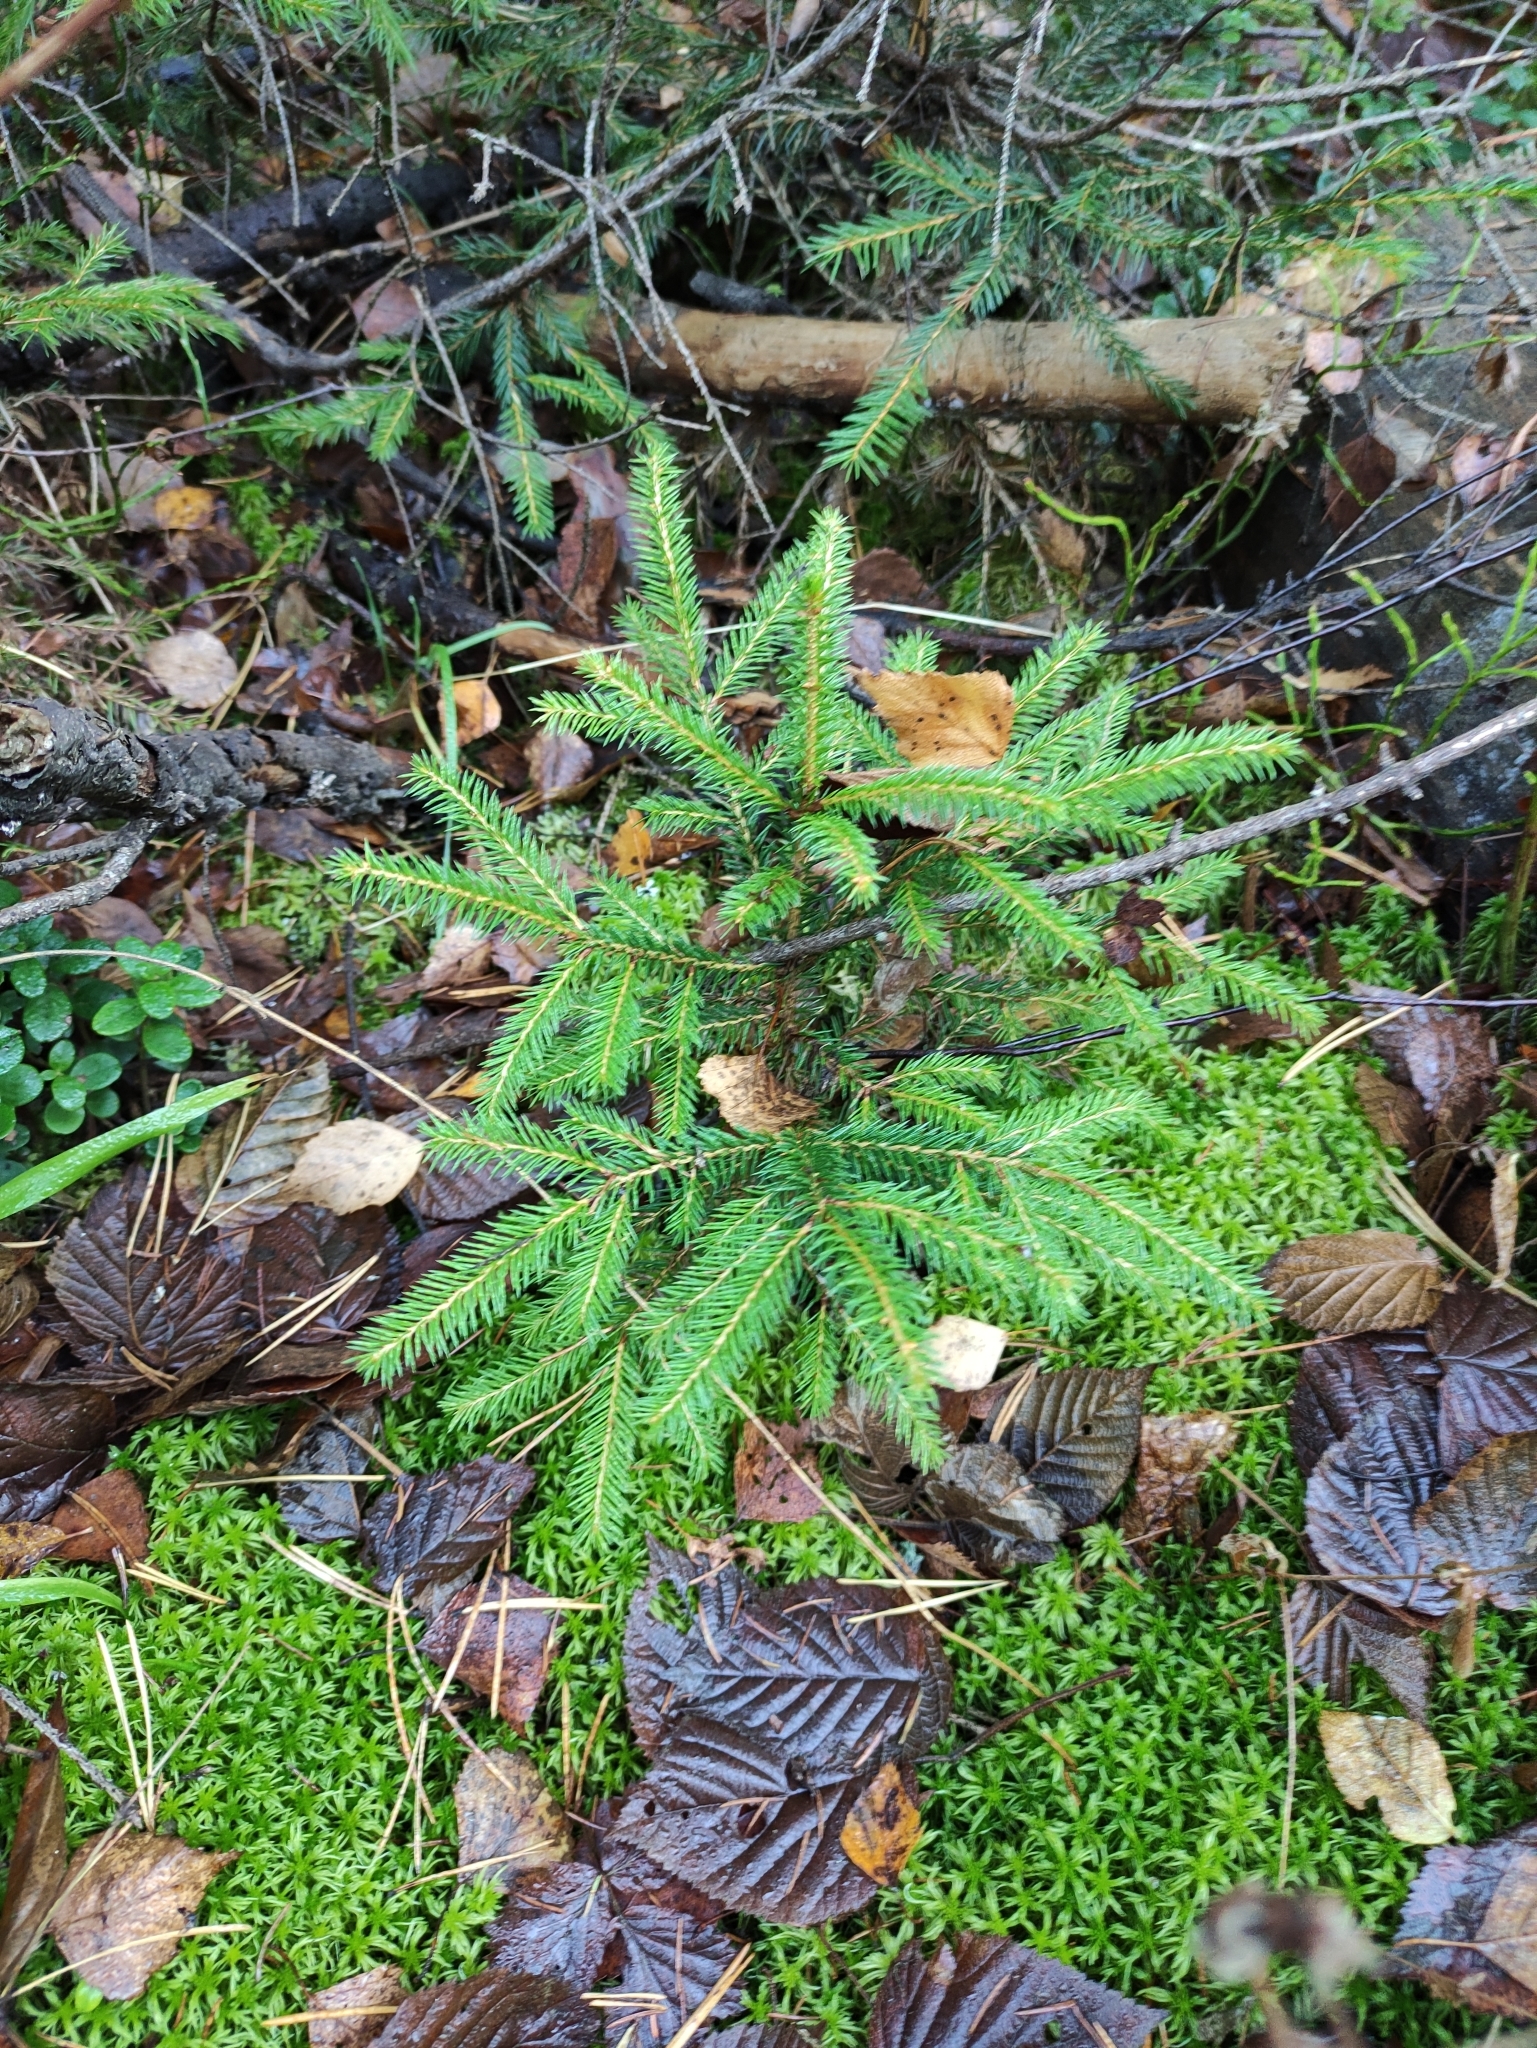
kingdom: Plantae
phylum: Tracheophyta
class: Pinopsida
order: Pinales
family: Pinaceae
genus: Picea
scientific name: Picea abies
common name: Norway spruce
